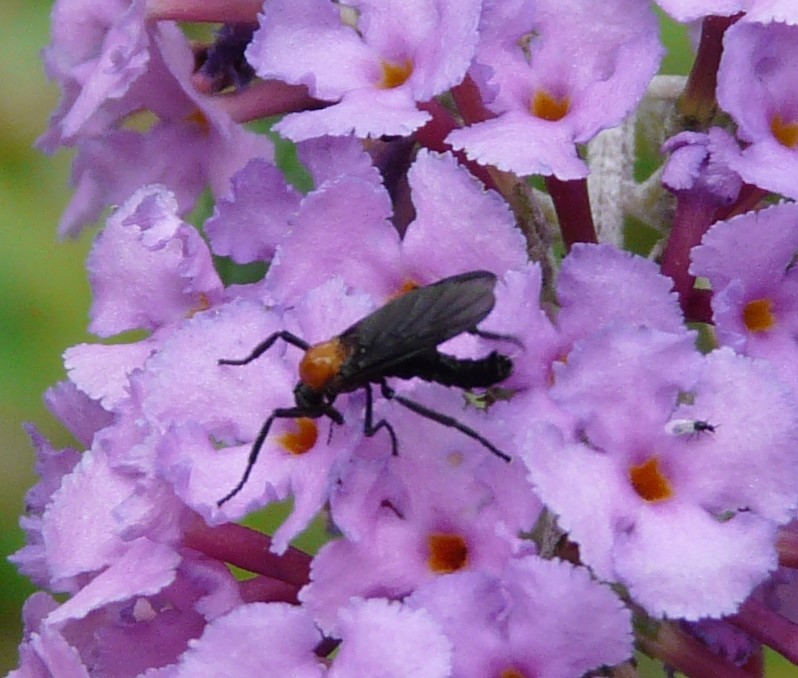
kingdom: Animalia
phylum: Arthropoda
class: Insecta
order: Diptera
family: Bibionidae
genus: Plecia
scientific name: Plecia nearctica
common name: March fly
